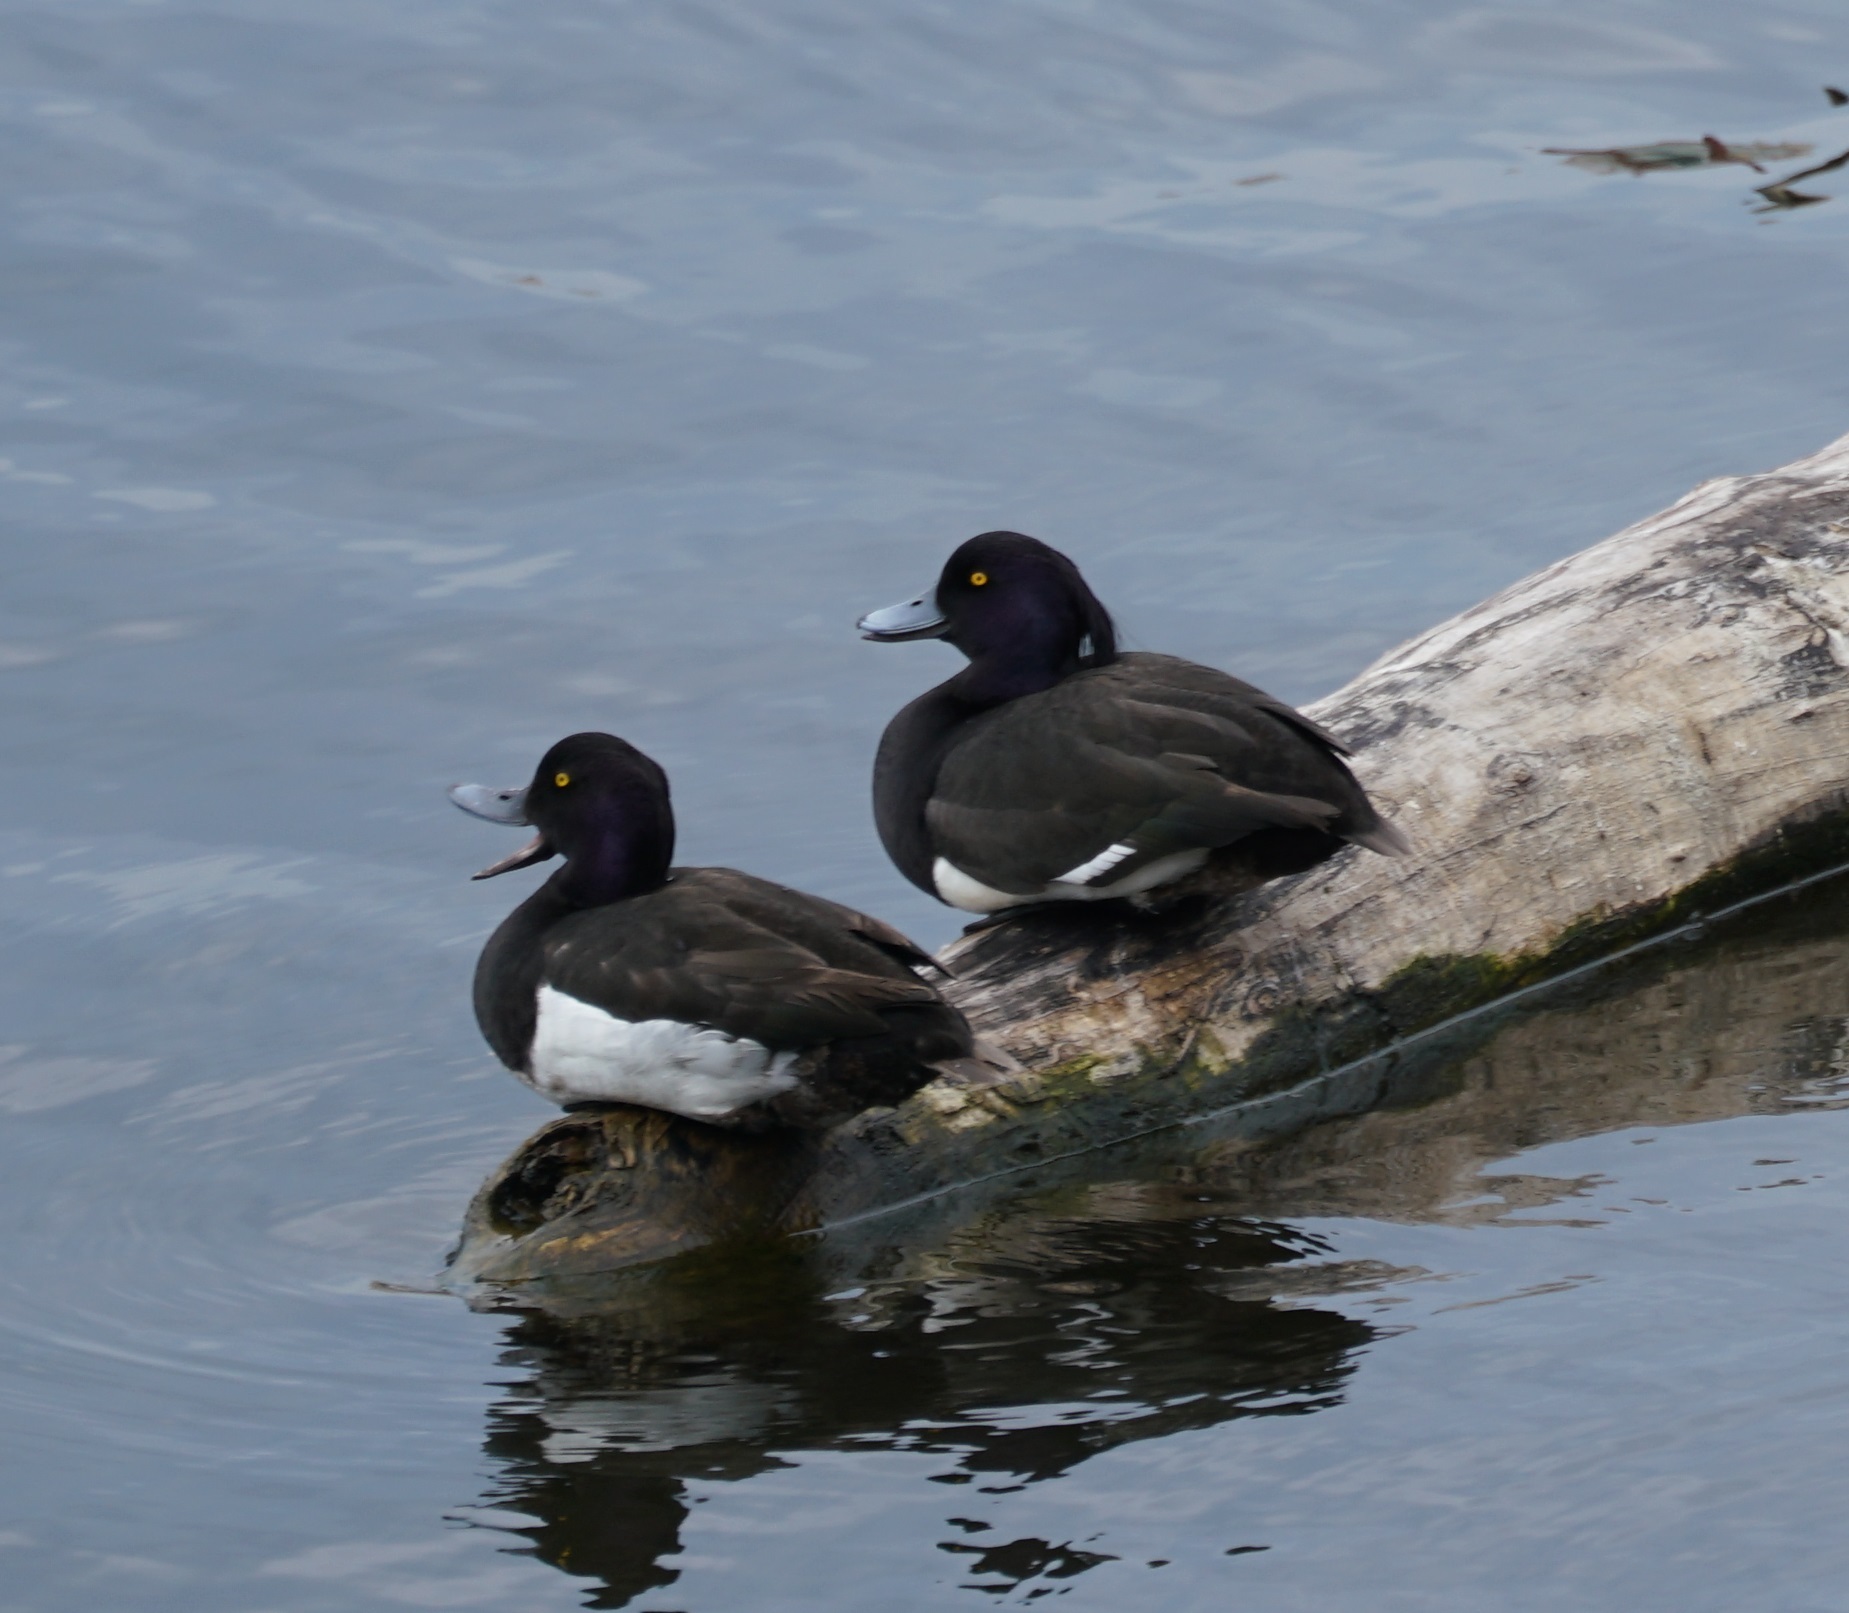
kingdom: Animalia
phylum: Chordata
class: Aves
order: Anseriformes
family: Anatidae
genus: Aythya
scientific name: Aythya fuligula
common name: Tufted duck
